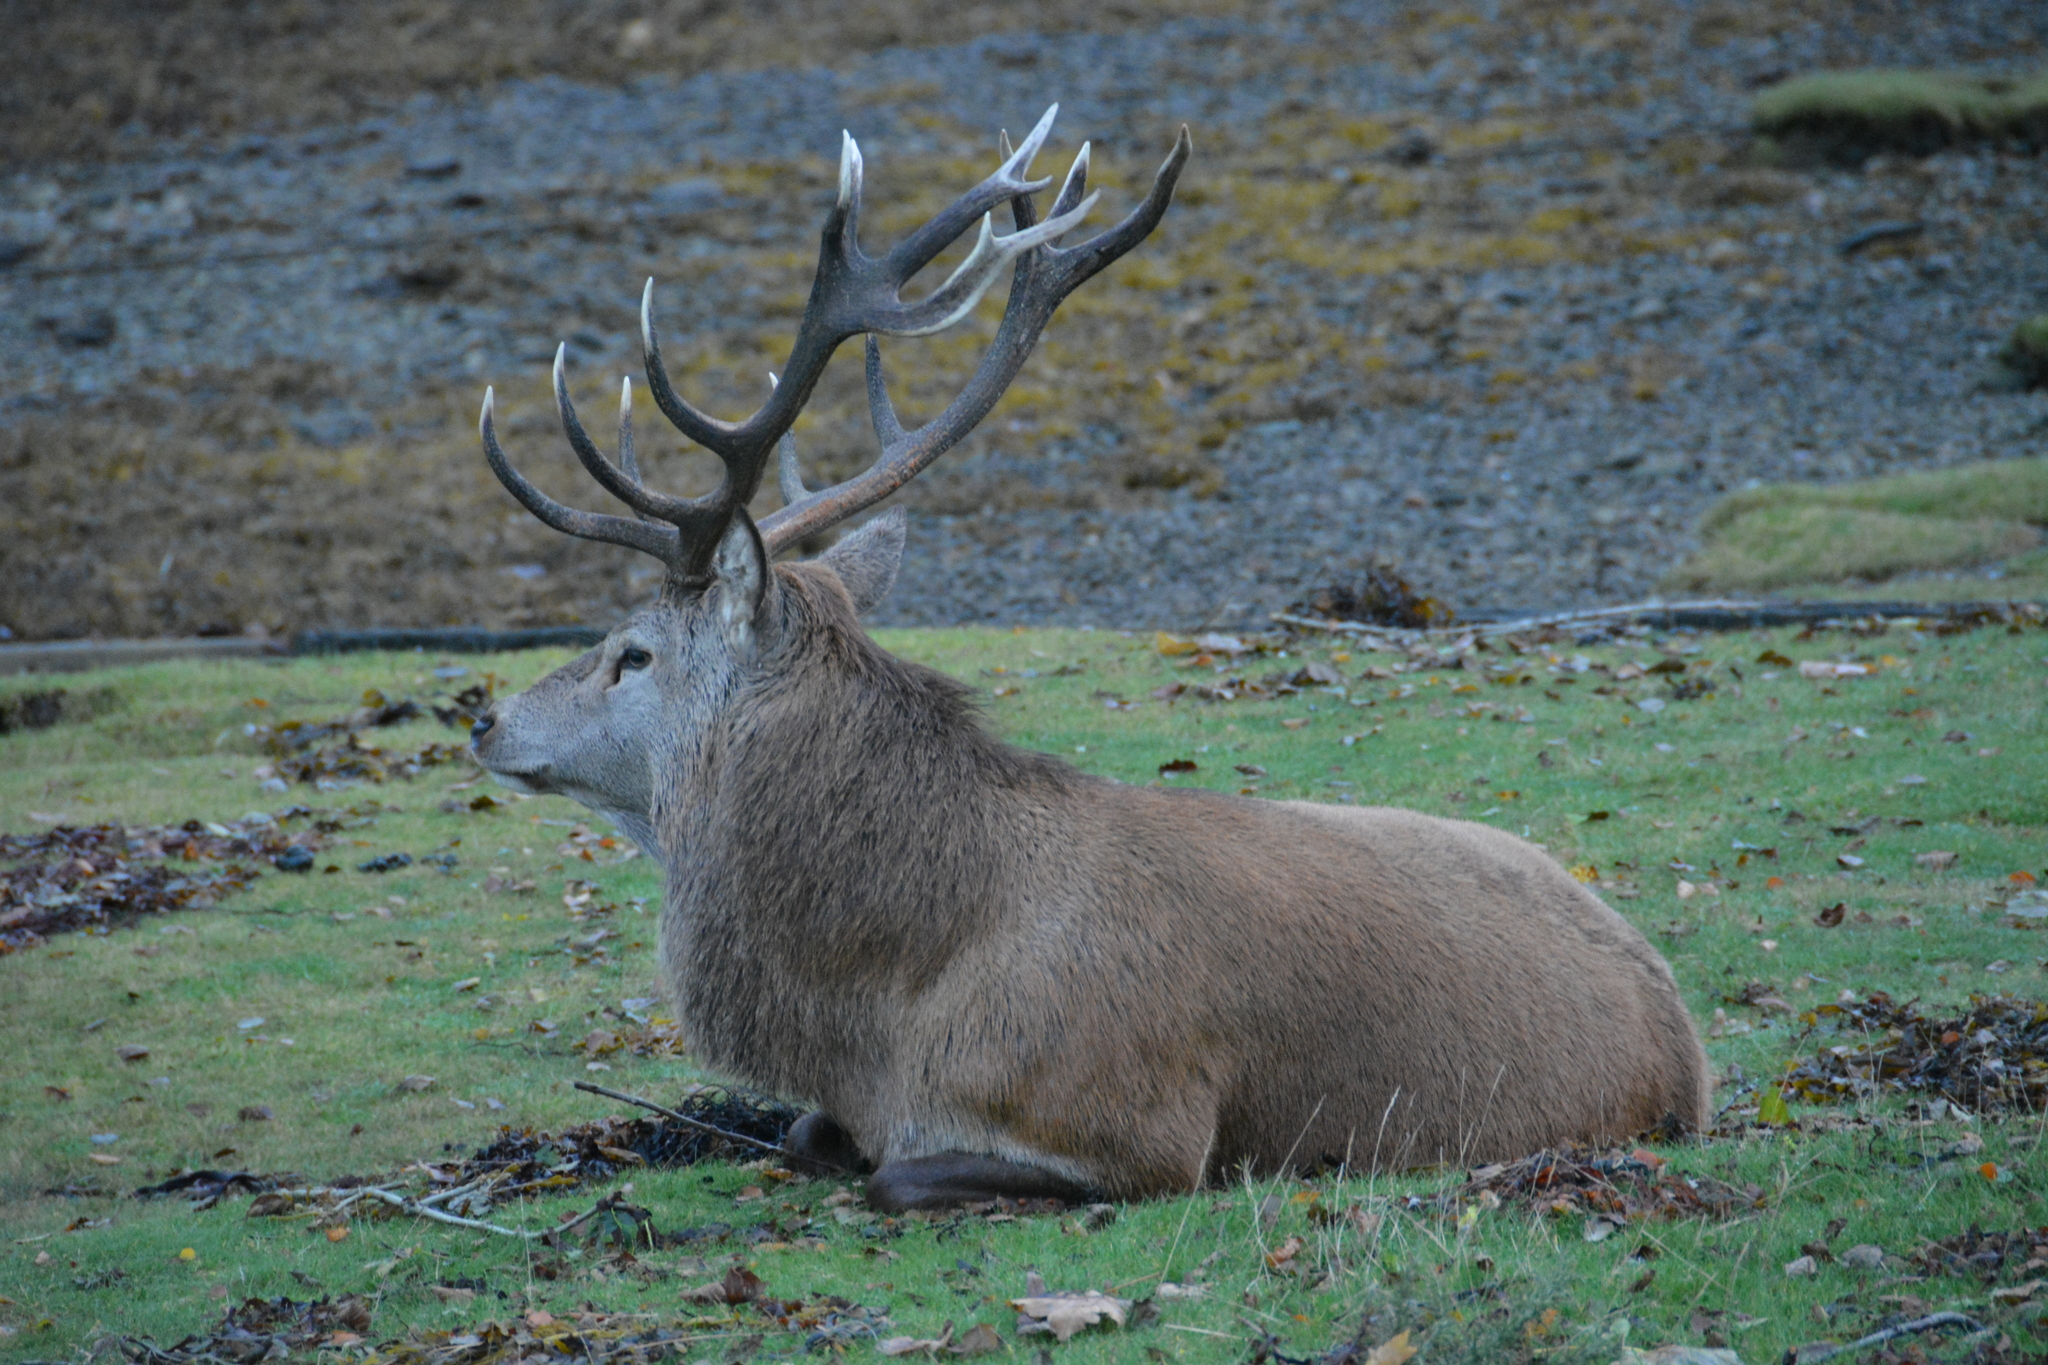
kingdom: Animalia
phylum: Chordata
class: Mammalia
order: Artiodactyla
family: Cervidae
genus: Cervus
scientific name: Cervus elaphus
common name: Red deer
